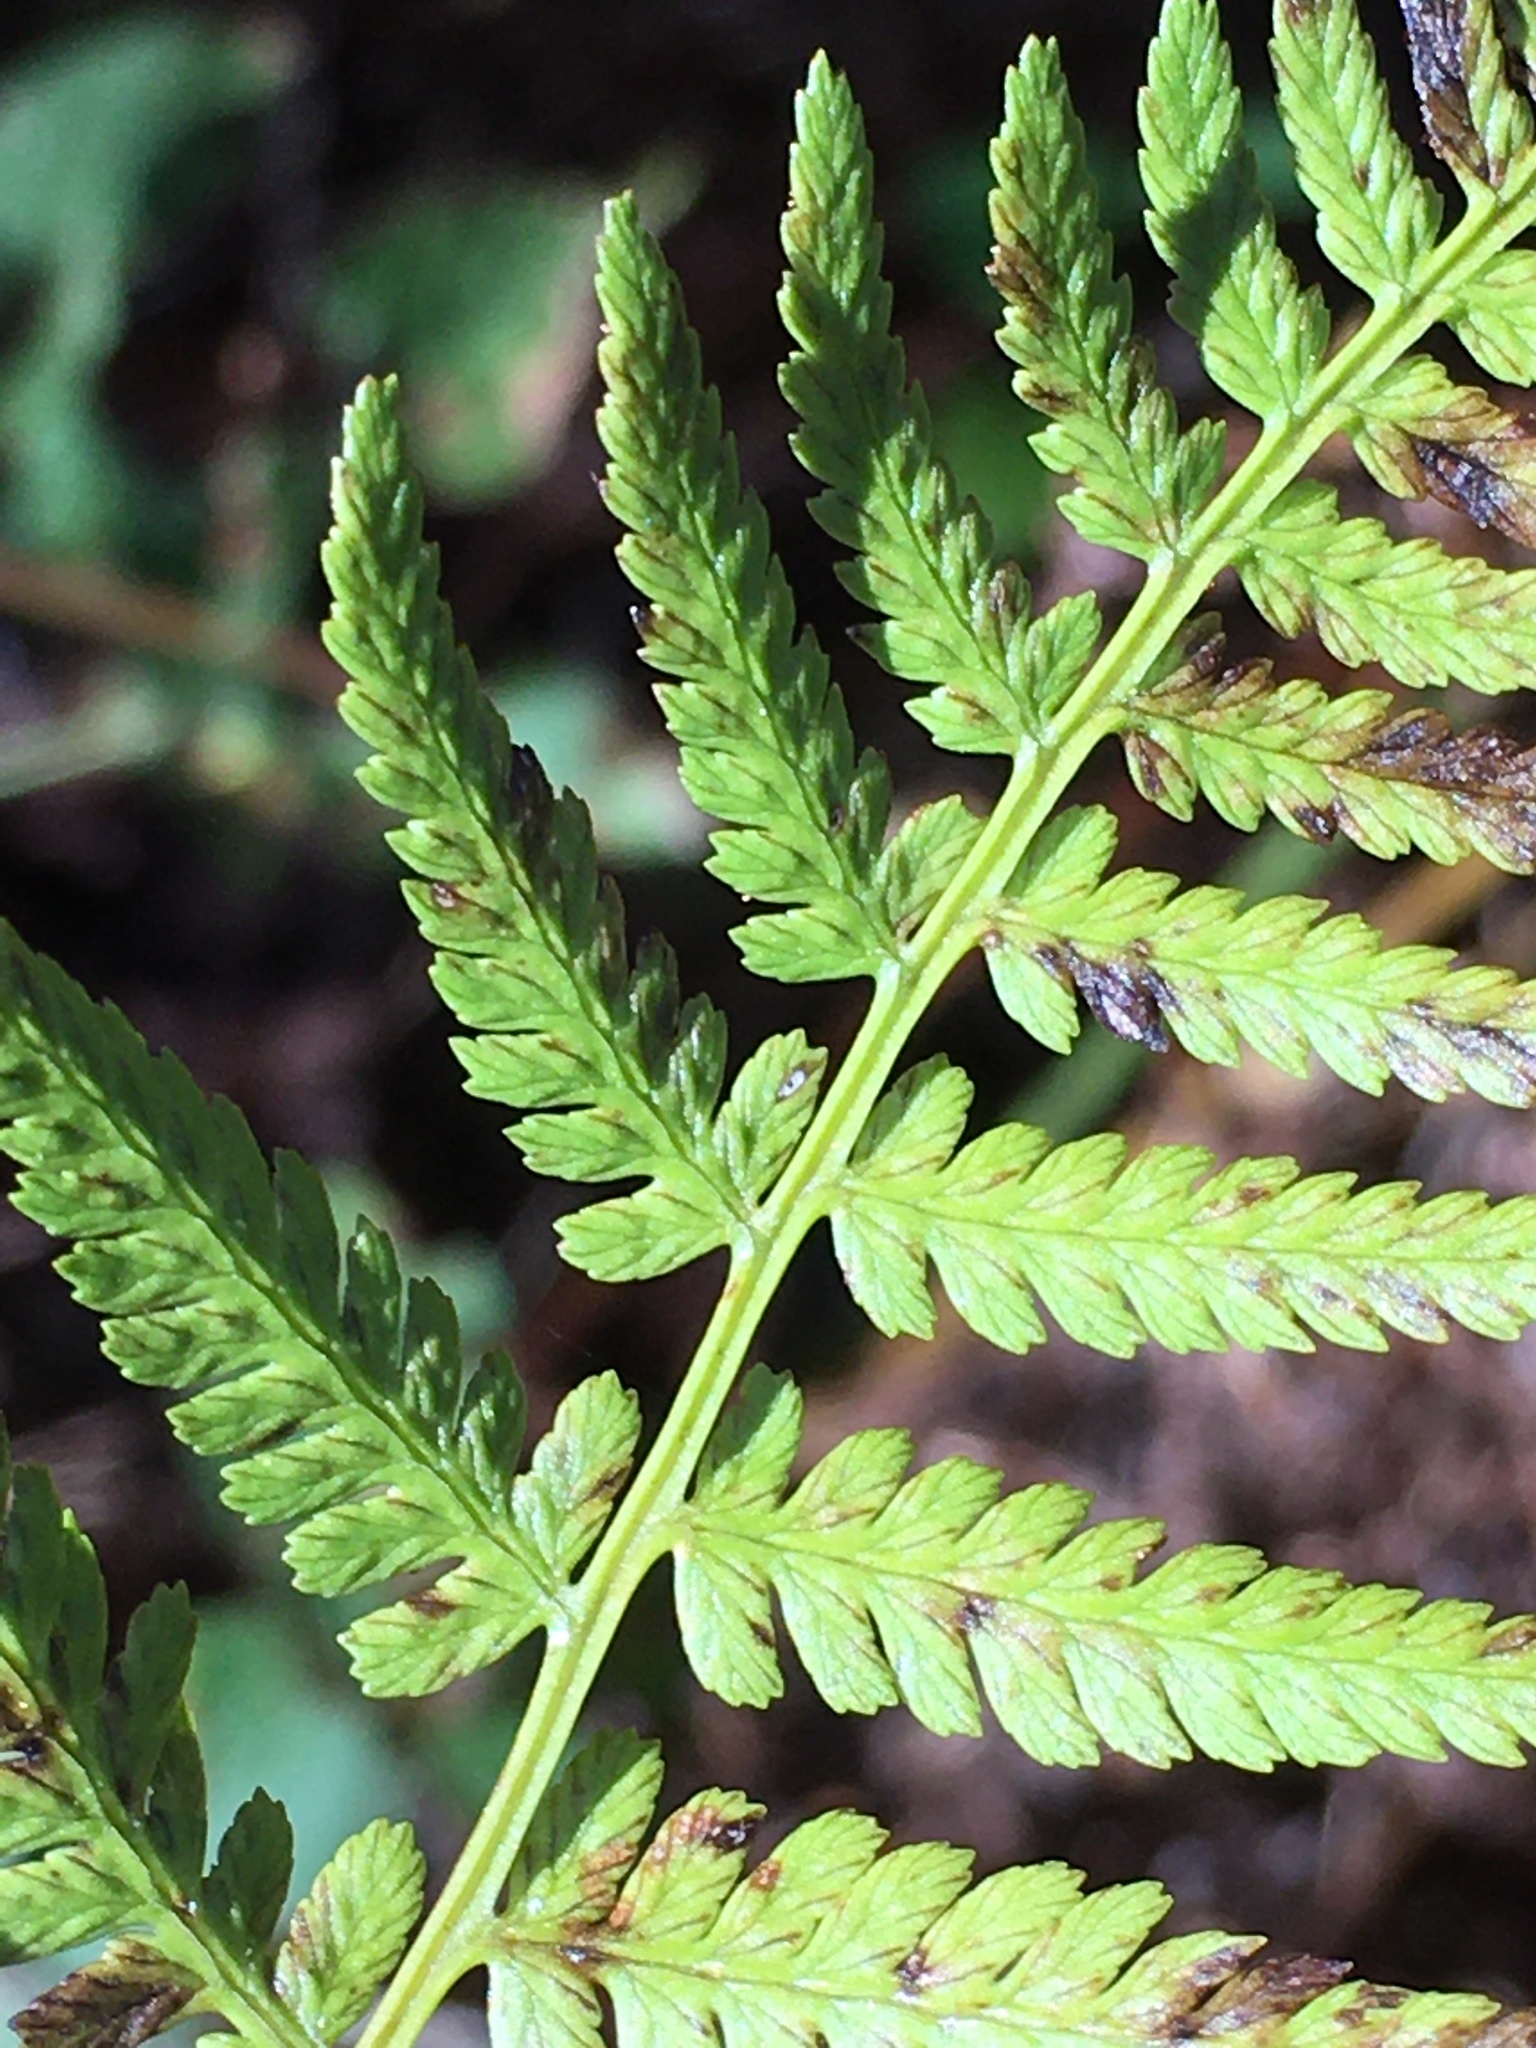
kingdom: Plantae
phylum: Tracheophyta
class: Polypodiopsida
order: Polypodiales
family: Athyriaceae
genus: Athyrium
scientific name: Athyrium asplenioides
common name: Southern lady fern
